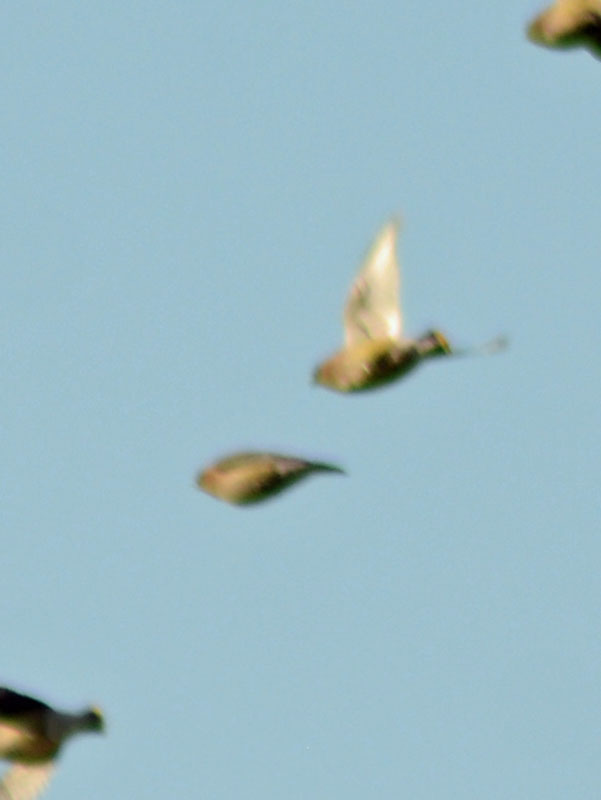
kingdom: Animalia
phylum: Chordata
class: Aves
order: Passeriformes
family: Bombycillidae
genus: Bombycilla
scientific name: Bombycilla cedrorum
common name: Cedar waxwing
